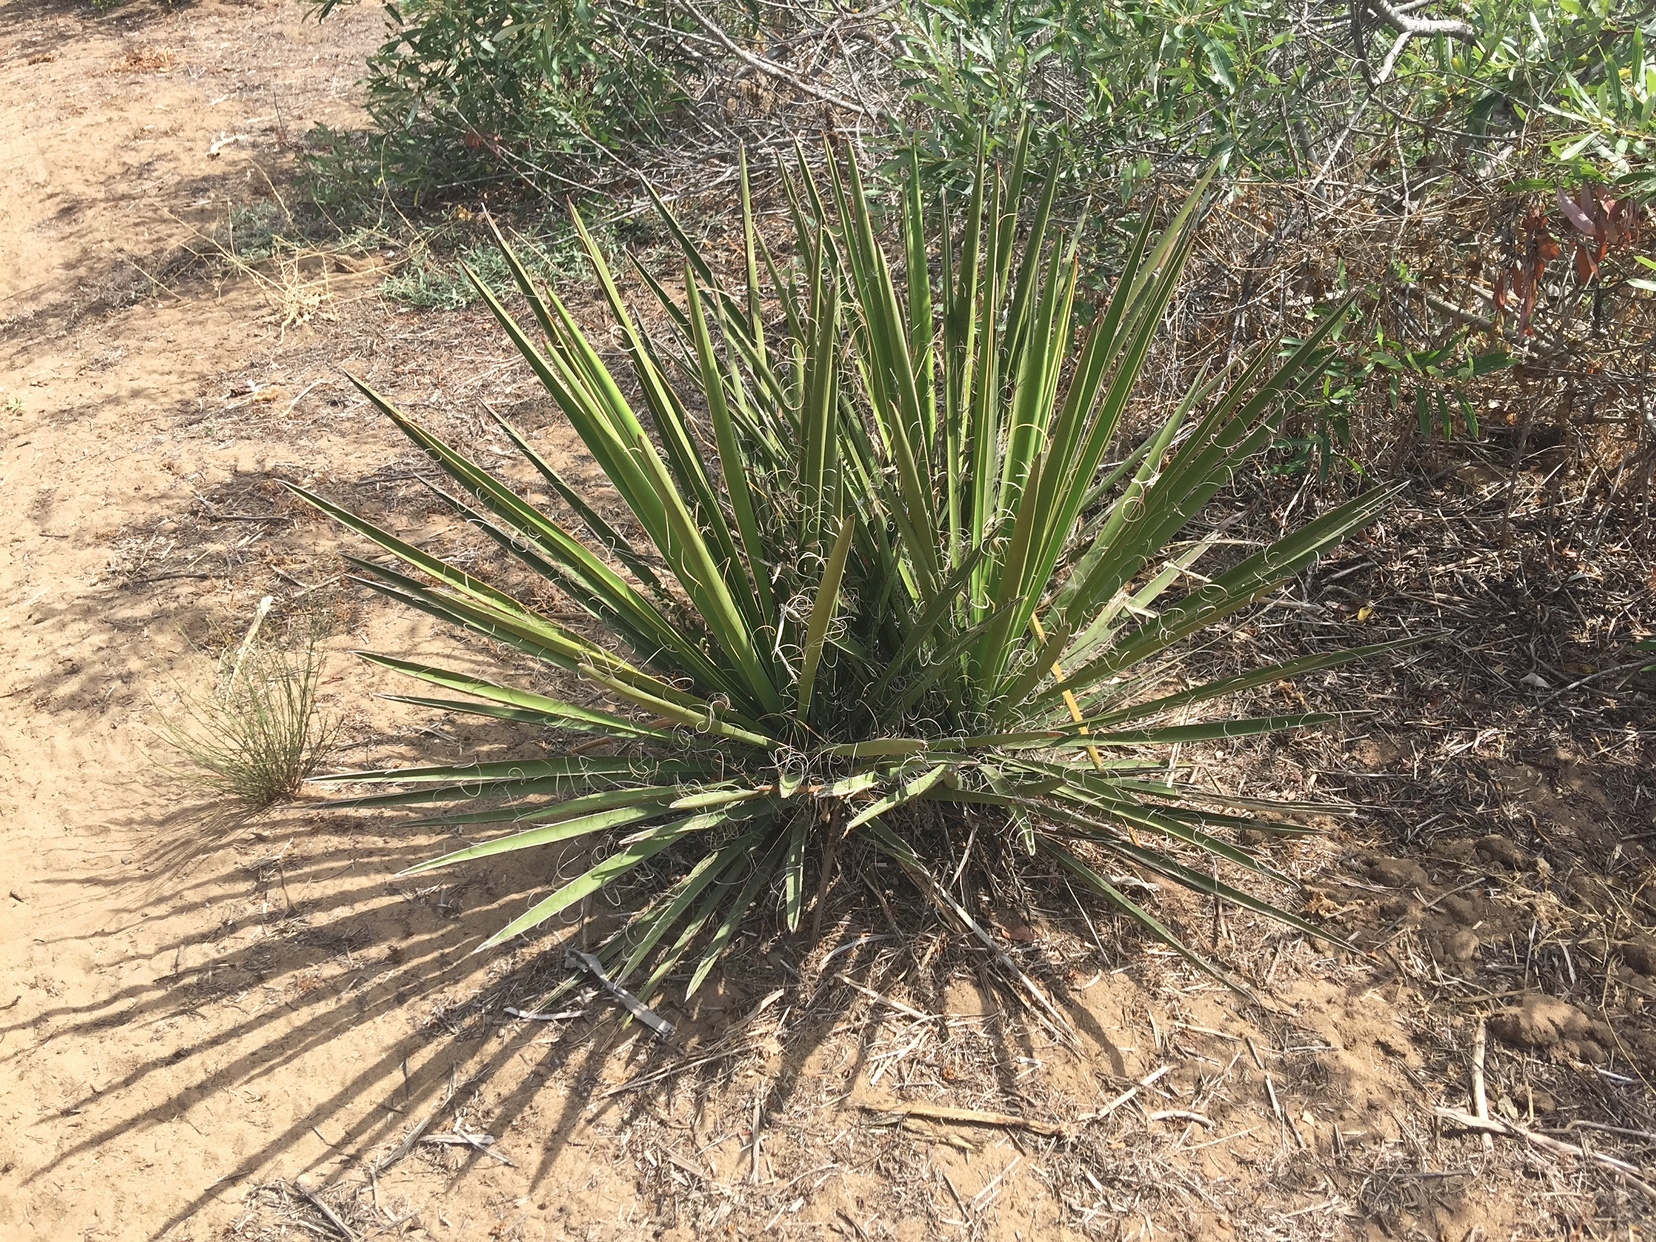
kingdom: Plantae
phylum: Tracheophyta
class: Liliopsida
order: Asparagales
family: Asparagaceae
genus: Yucca
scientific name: Yucca schidigera
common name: Mojave yucca
